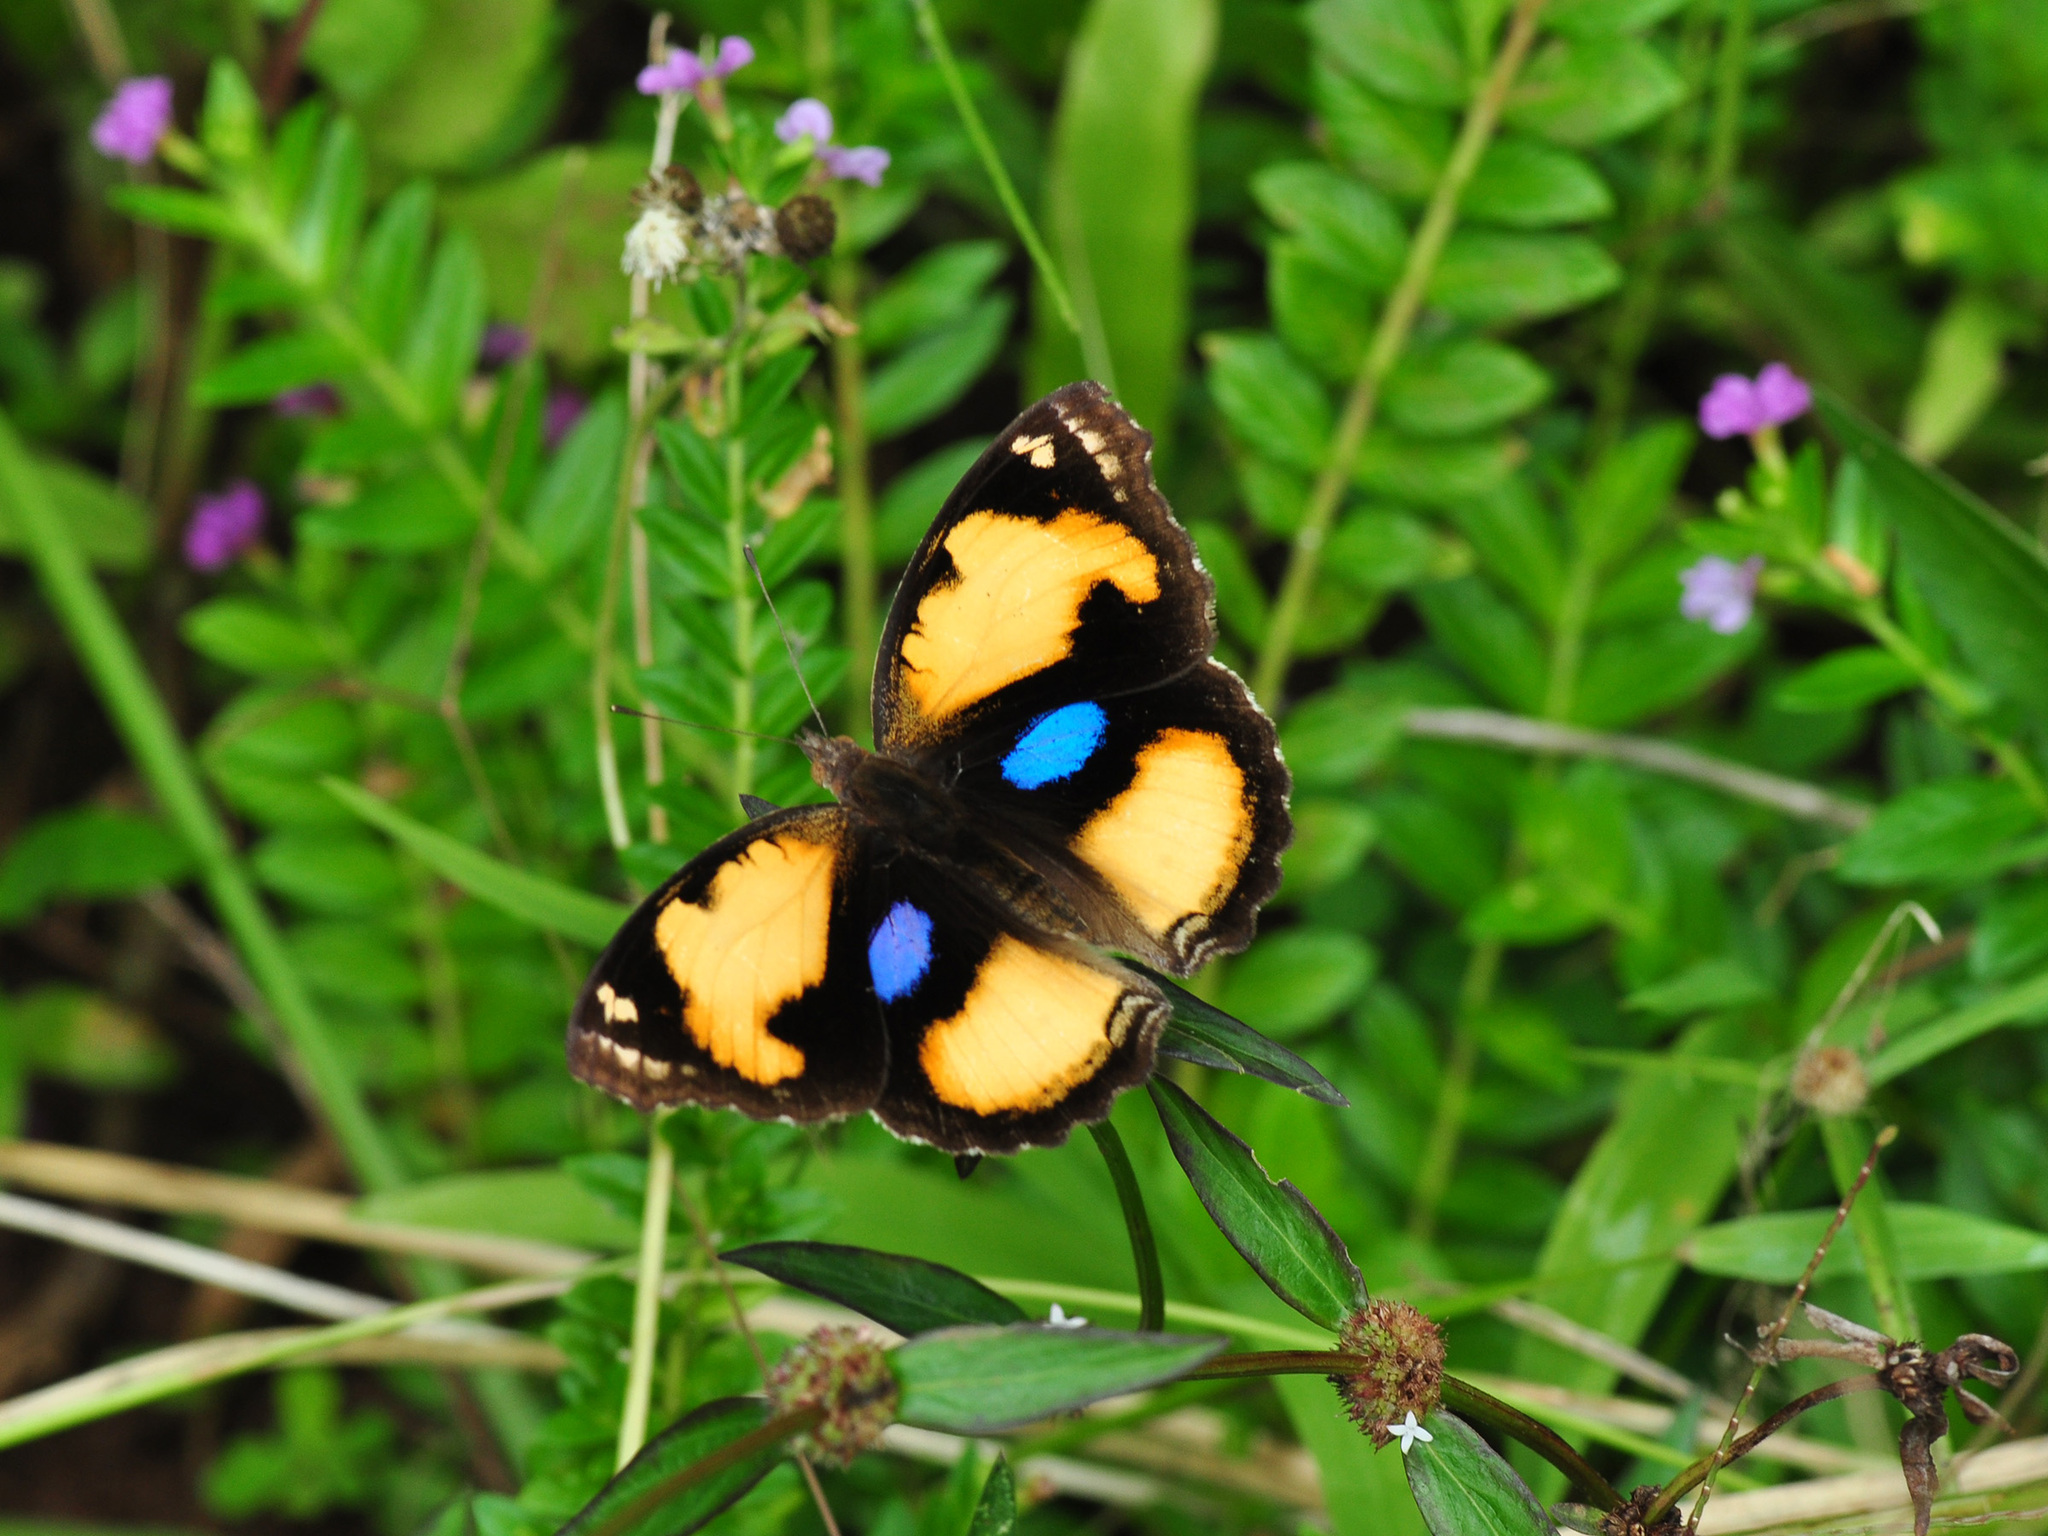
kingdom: Animalia
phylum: Arthropoda
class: Insecta
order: Lepidoptera
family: Nymphalidae
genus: Junonia
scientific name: Junonia hierta
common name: Yellow pansy
